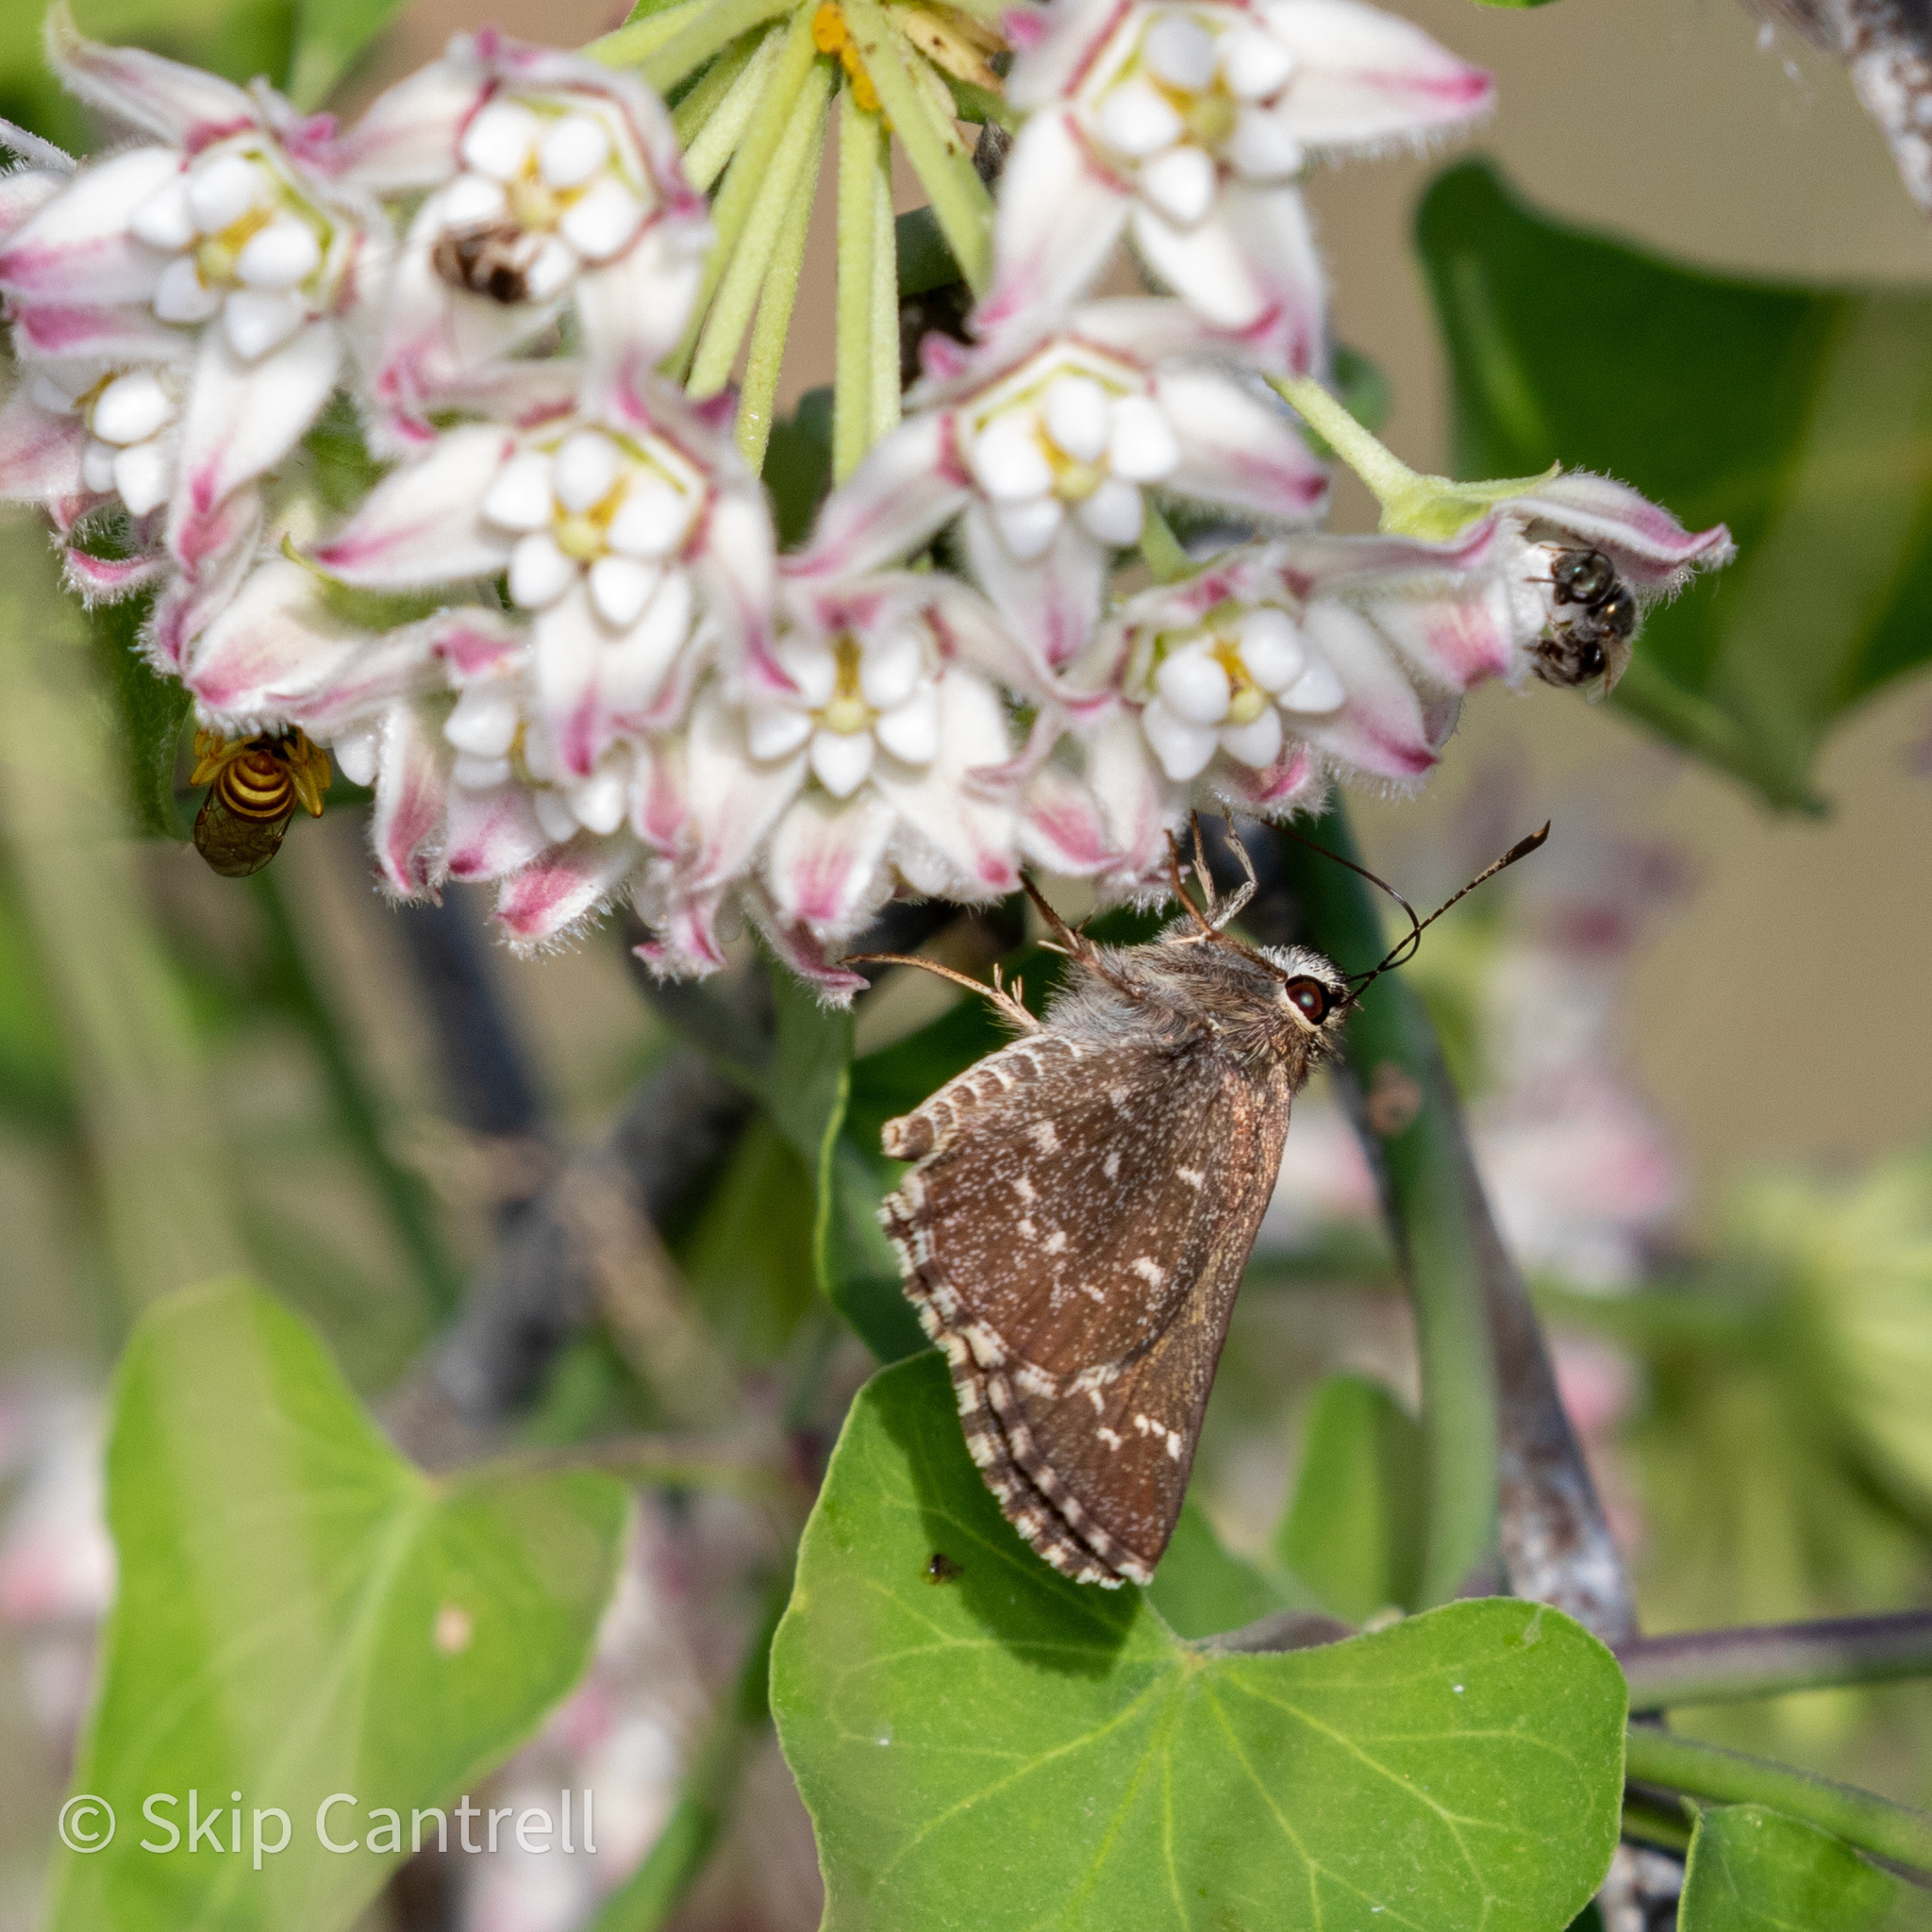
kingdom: Animalia
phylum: Arthropoda
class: Insecta
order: Lepidoptera
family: Hesperiidae
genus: Mastor
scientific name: Mastor celia
